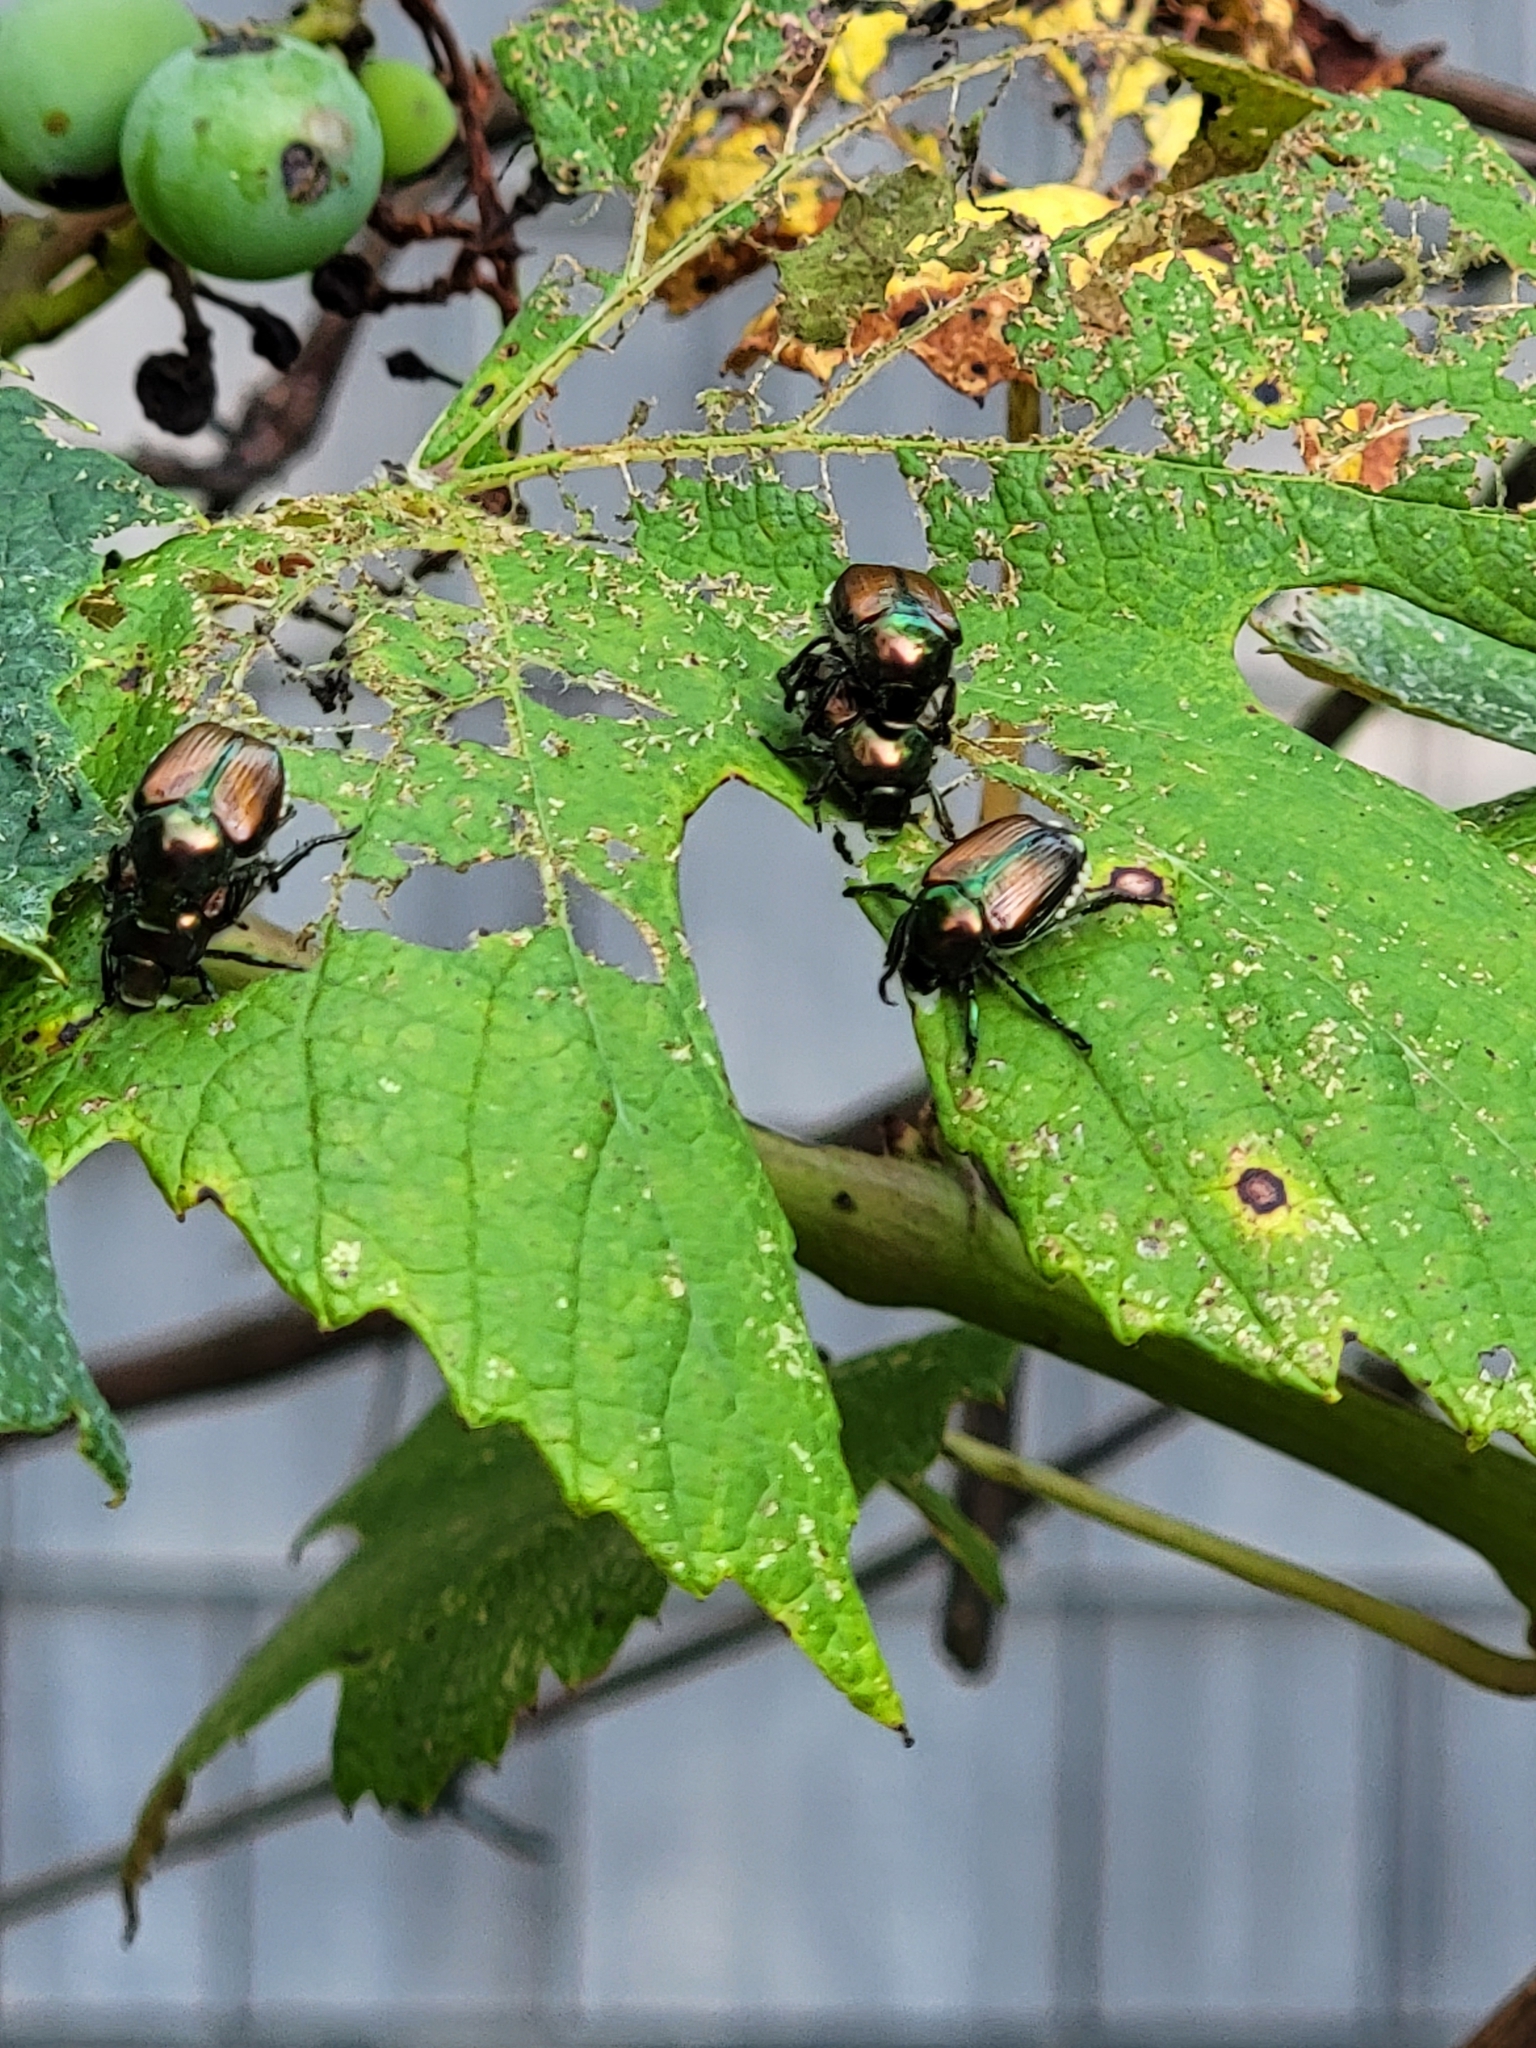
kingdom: Animalia
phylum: Arthropoda
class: Insecta
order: Coleoptera
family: Scarabaeidae
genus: Popillia
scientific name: Popillia japonica
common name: Japanese beetle
